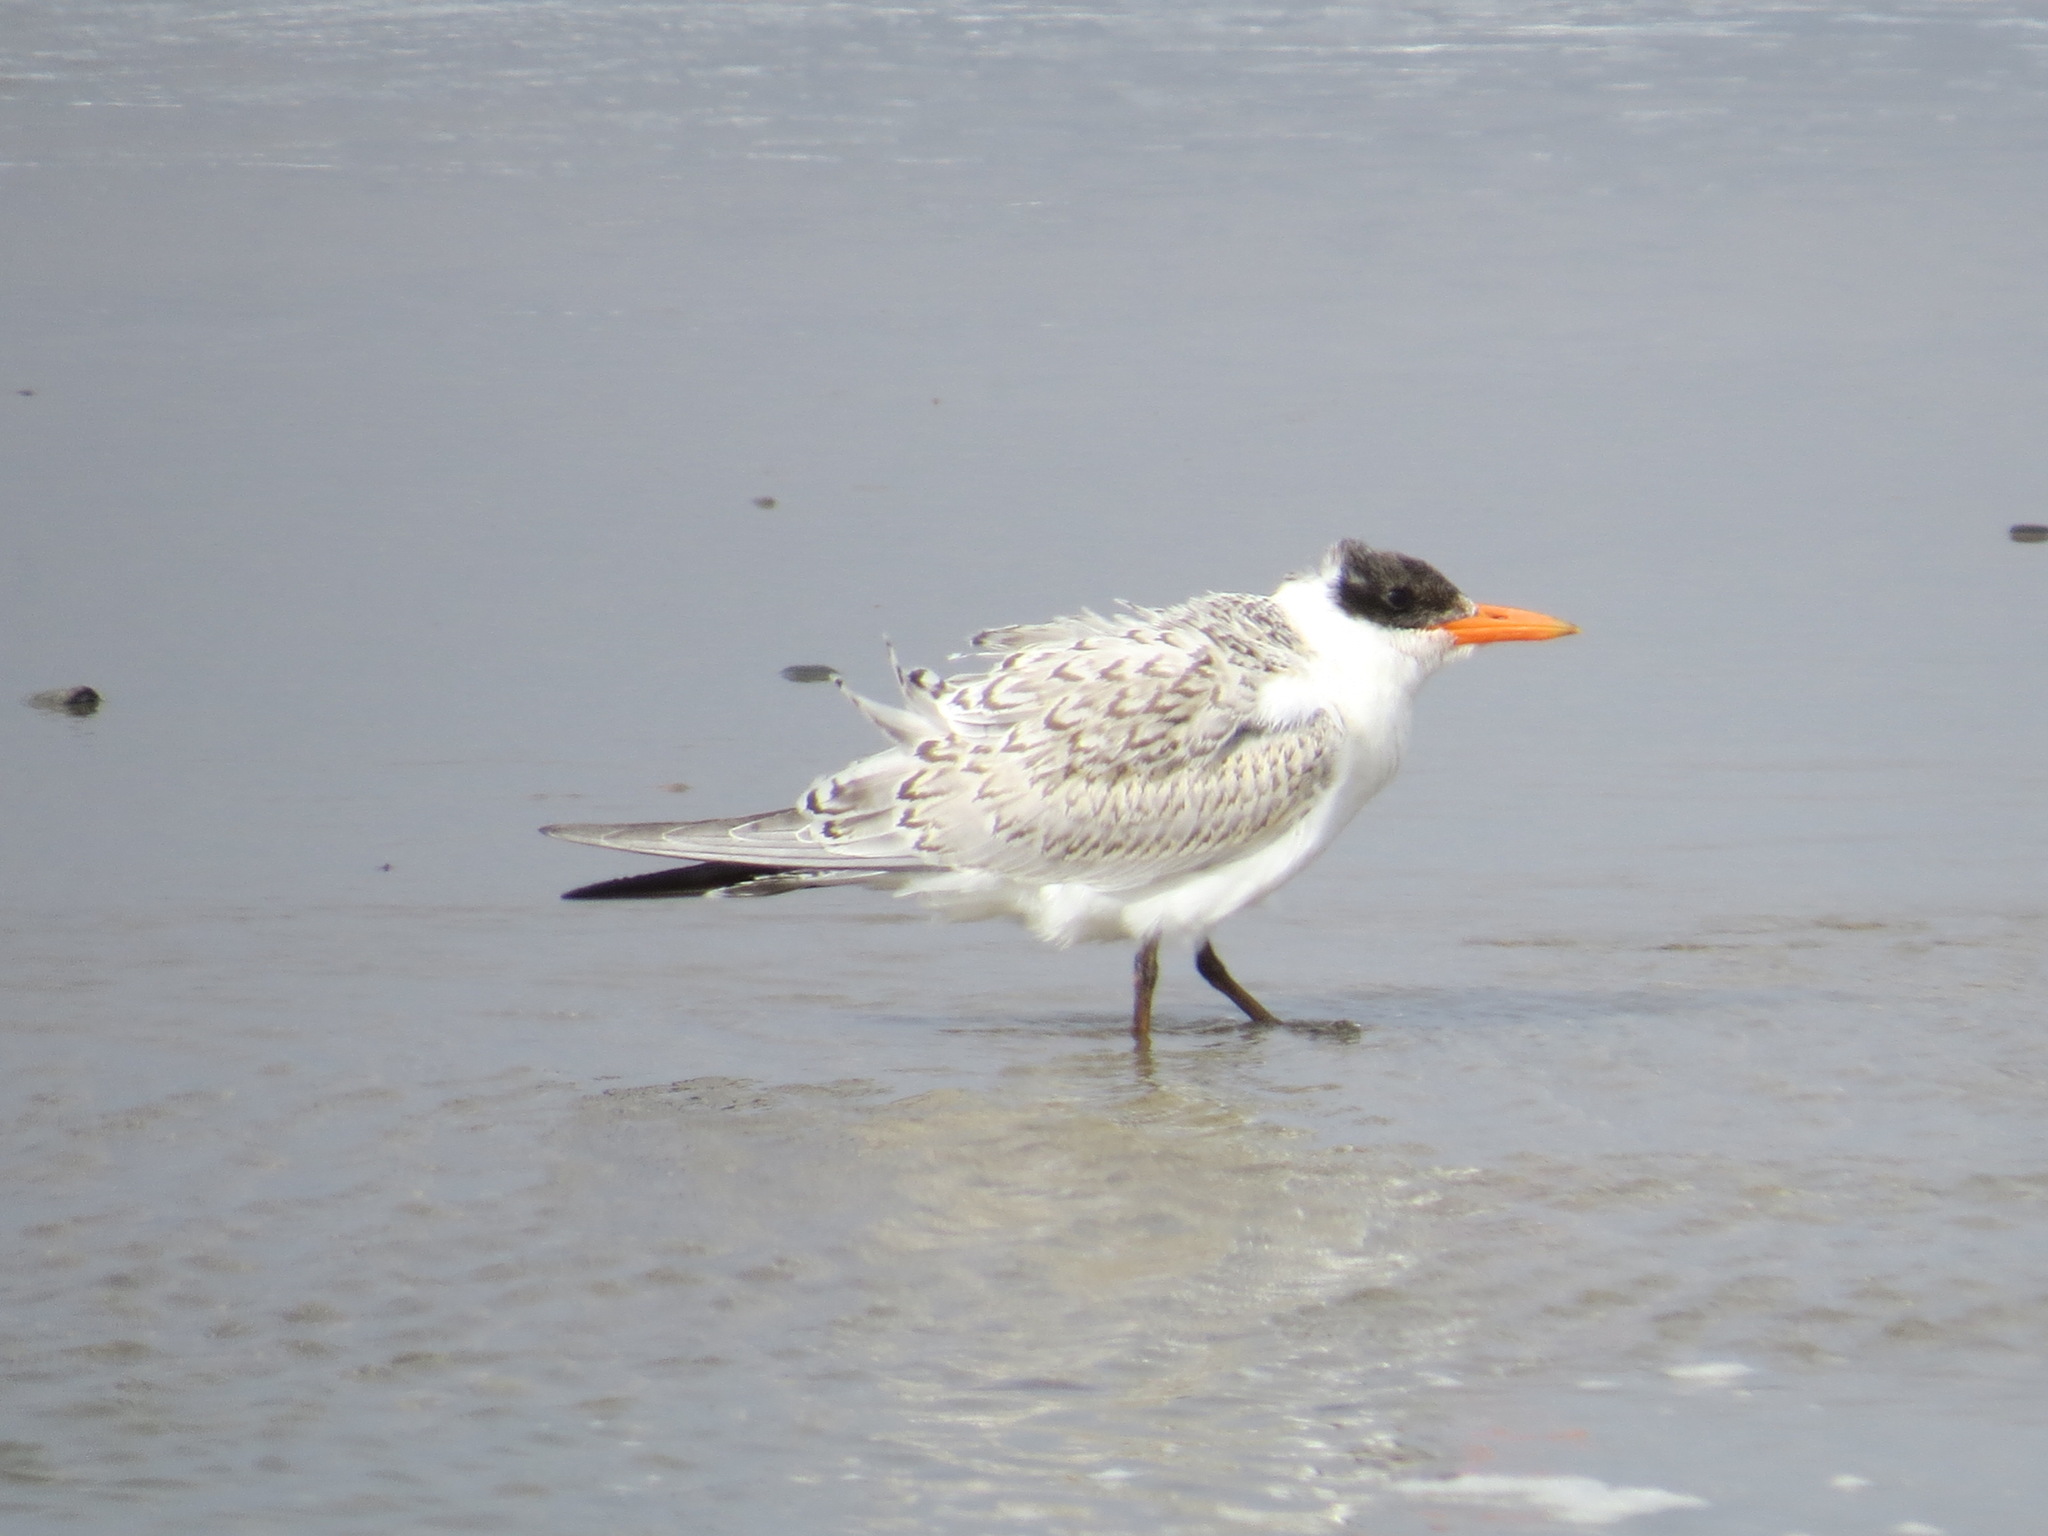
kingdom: Animalia
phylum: Chordata
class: Aves
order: Charadriiformes
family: Laridae
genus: Hydroprogne
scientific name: Hydroprogne caspia
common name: Caspian tern
